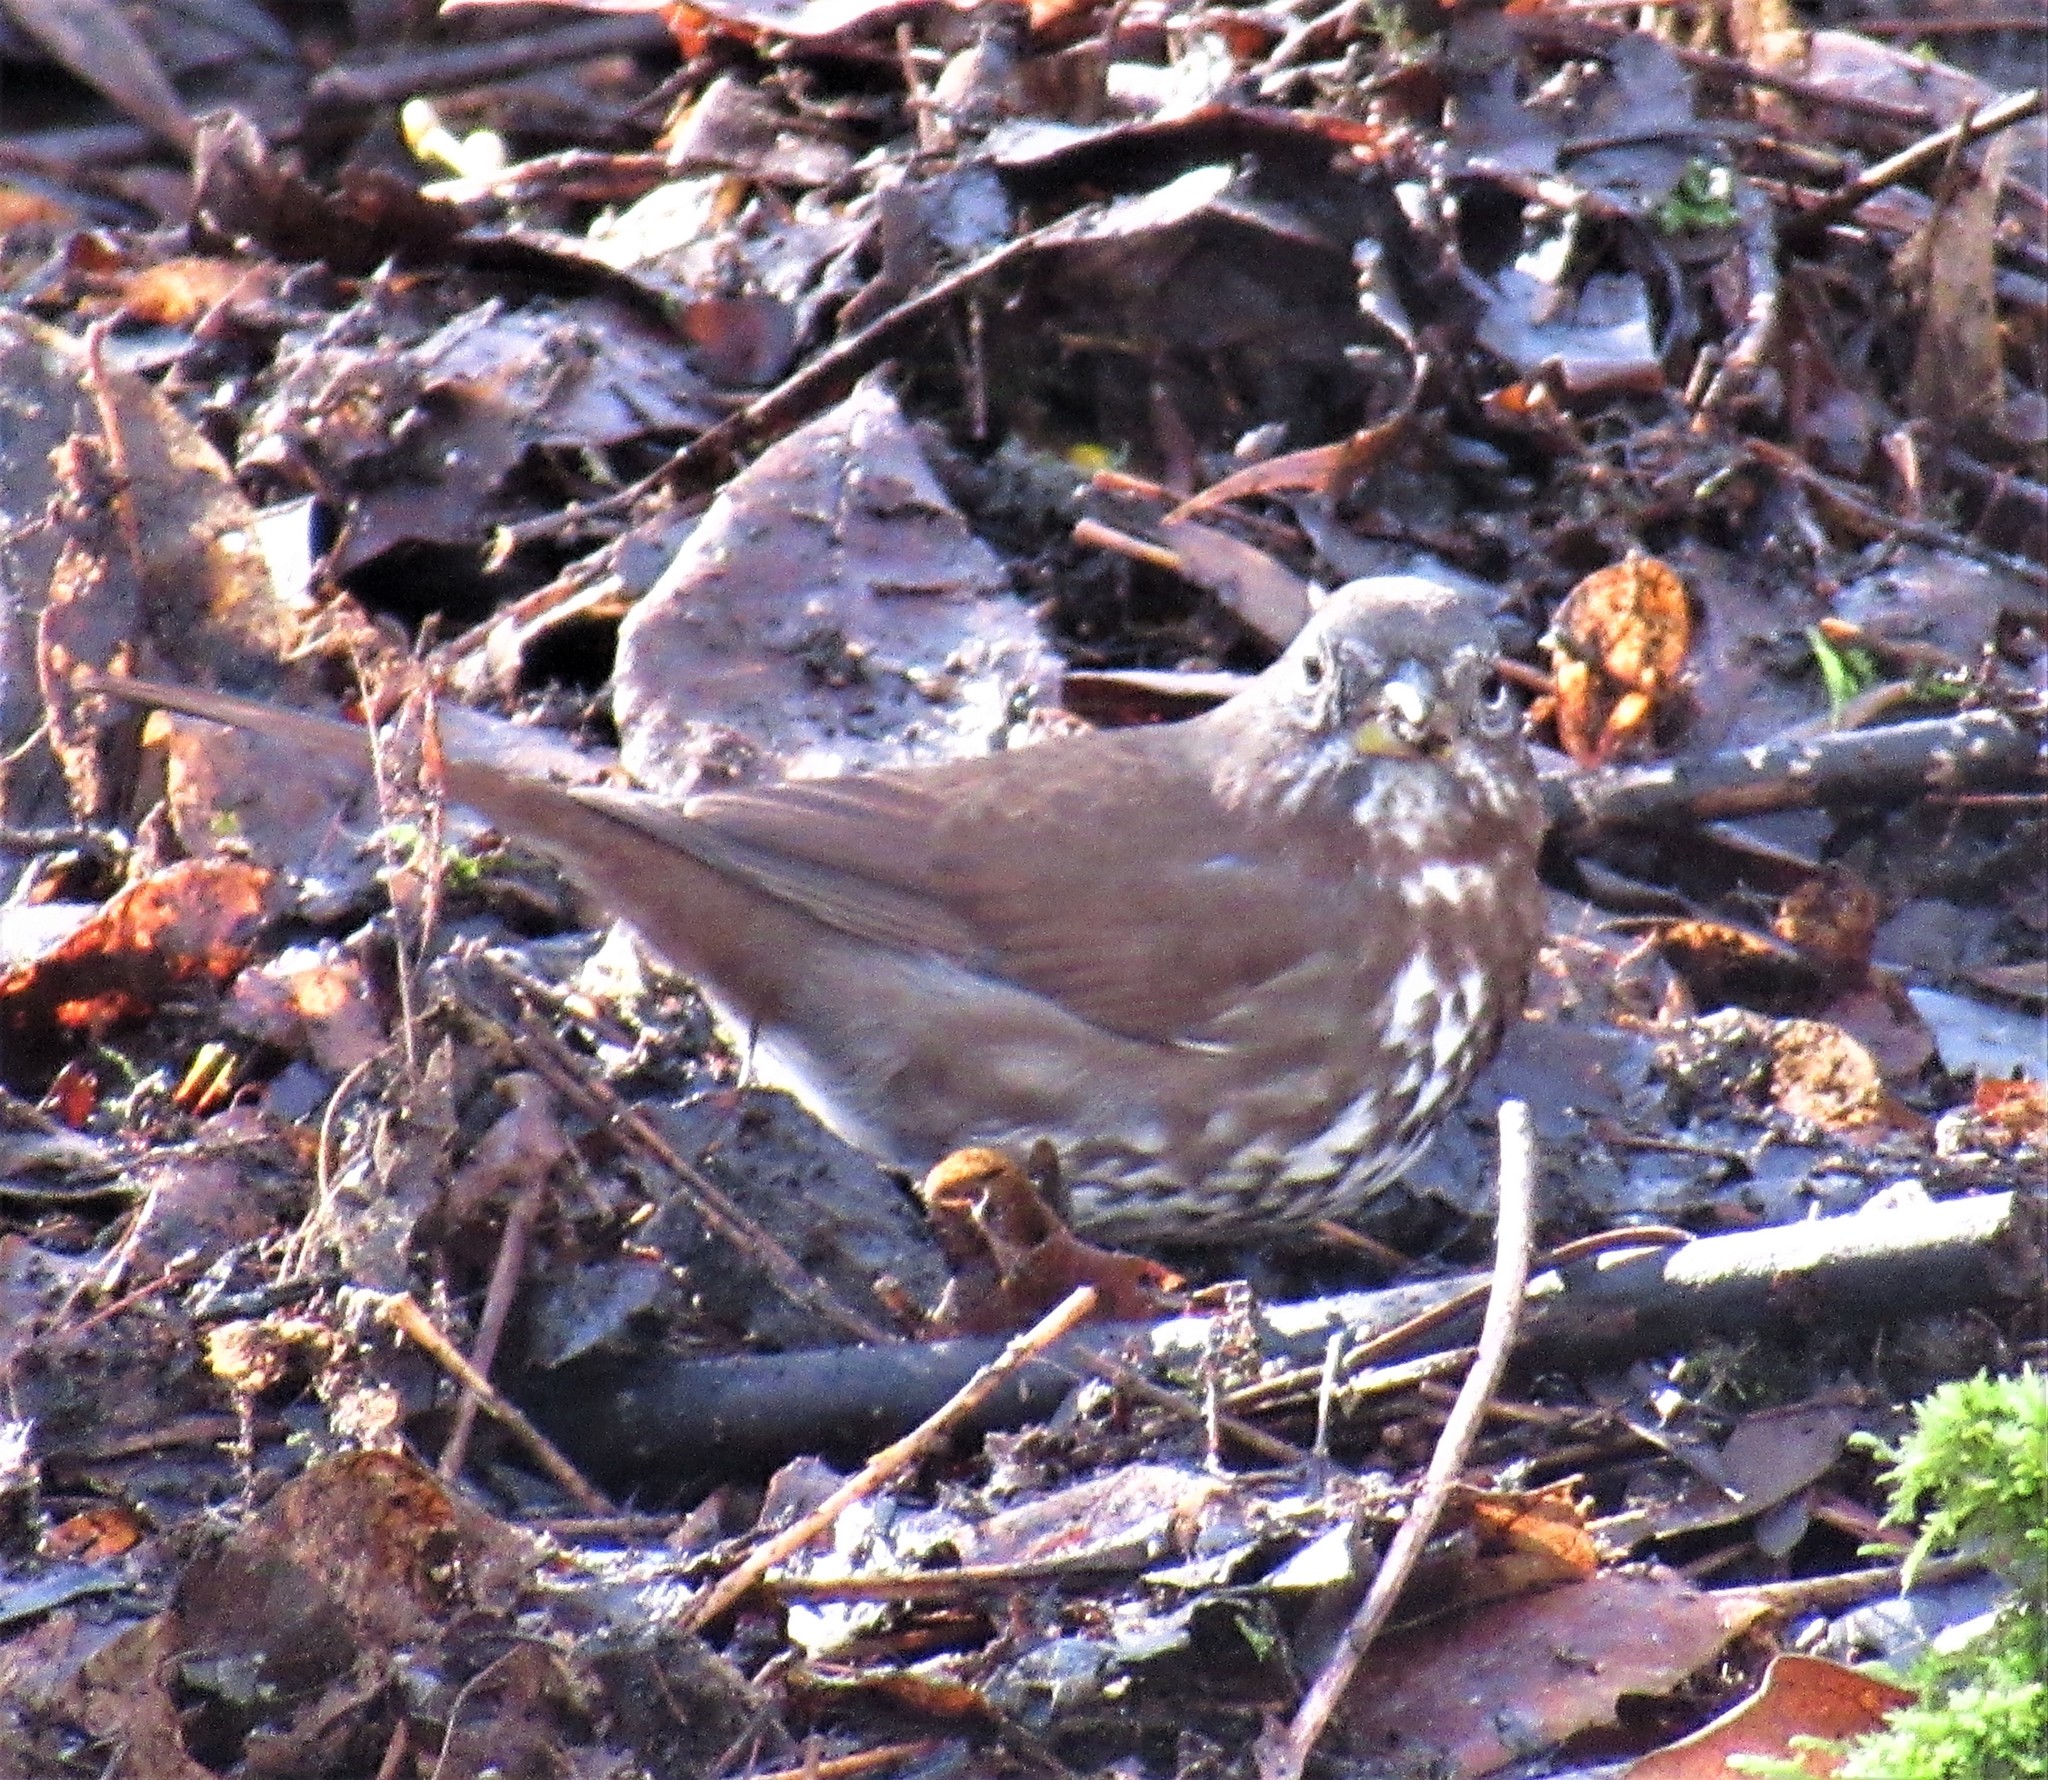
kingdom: Animalia
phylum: Chordata
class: Aves
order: Passeriformes
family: Passerellidae
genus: Passerella
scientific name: Passerella iliaca
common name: Fox sparrow
